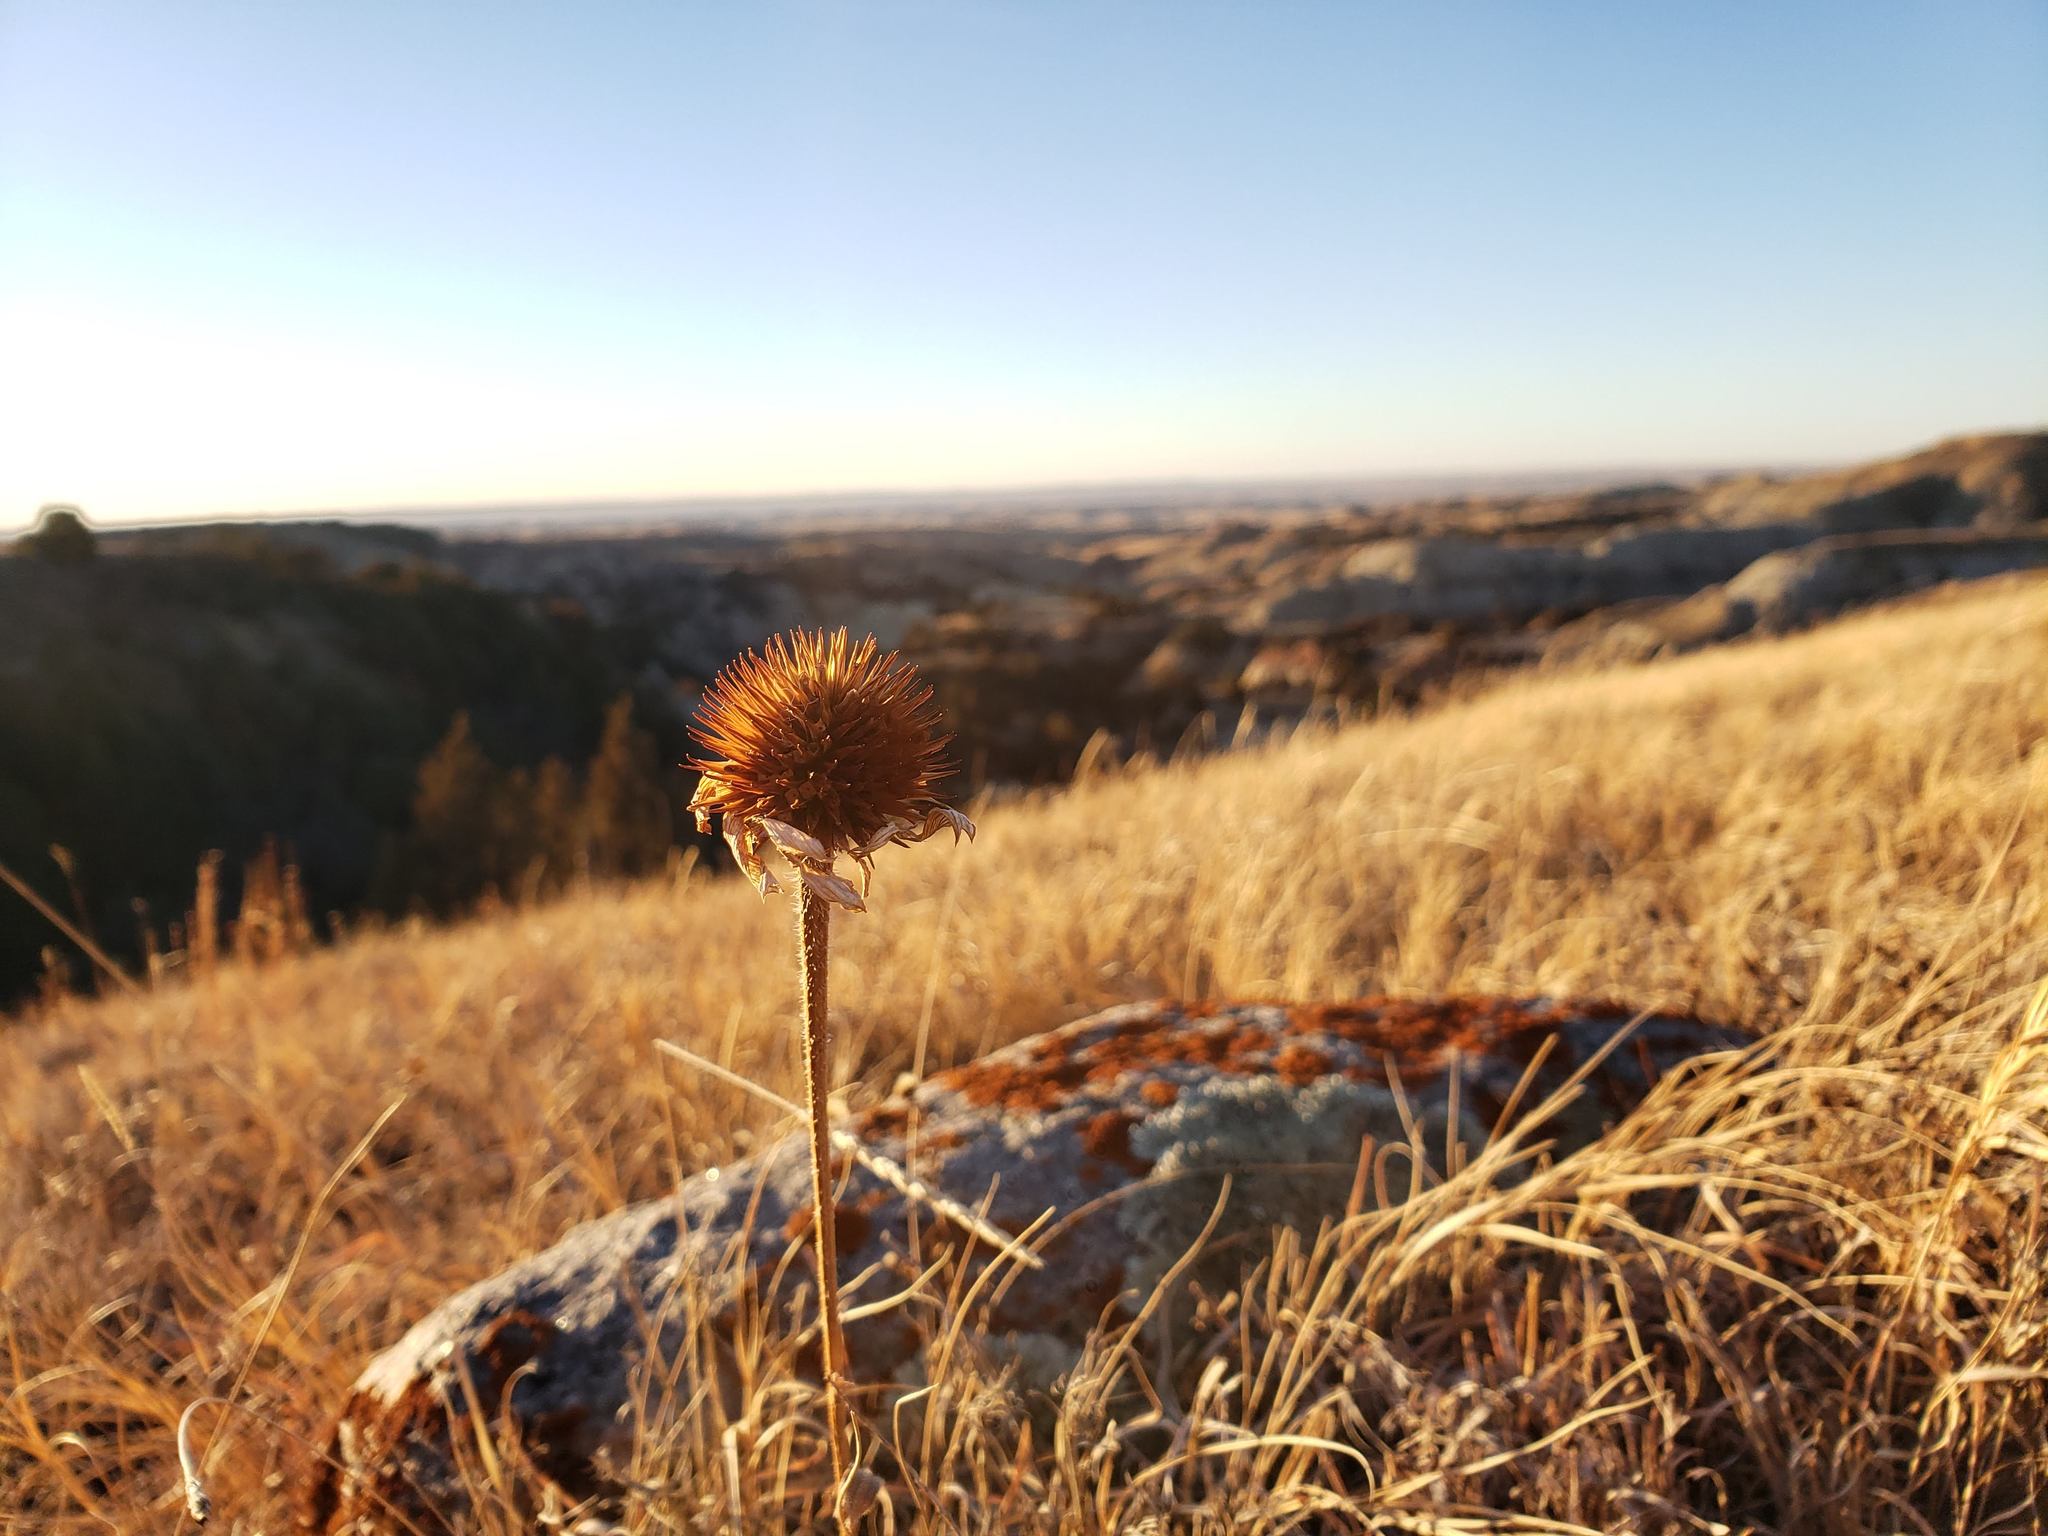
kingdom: Plantae
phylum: Tracheophyta
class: Magnoliopsida
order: Asterales
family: Asteraceae
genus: Echinacea
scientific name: Echinacea angustifolia
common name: Black-sampson echinacea
